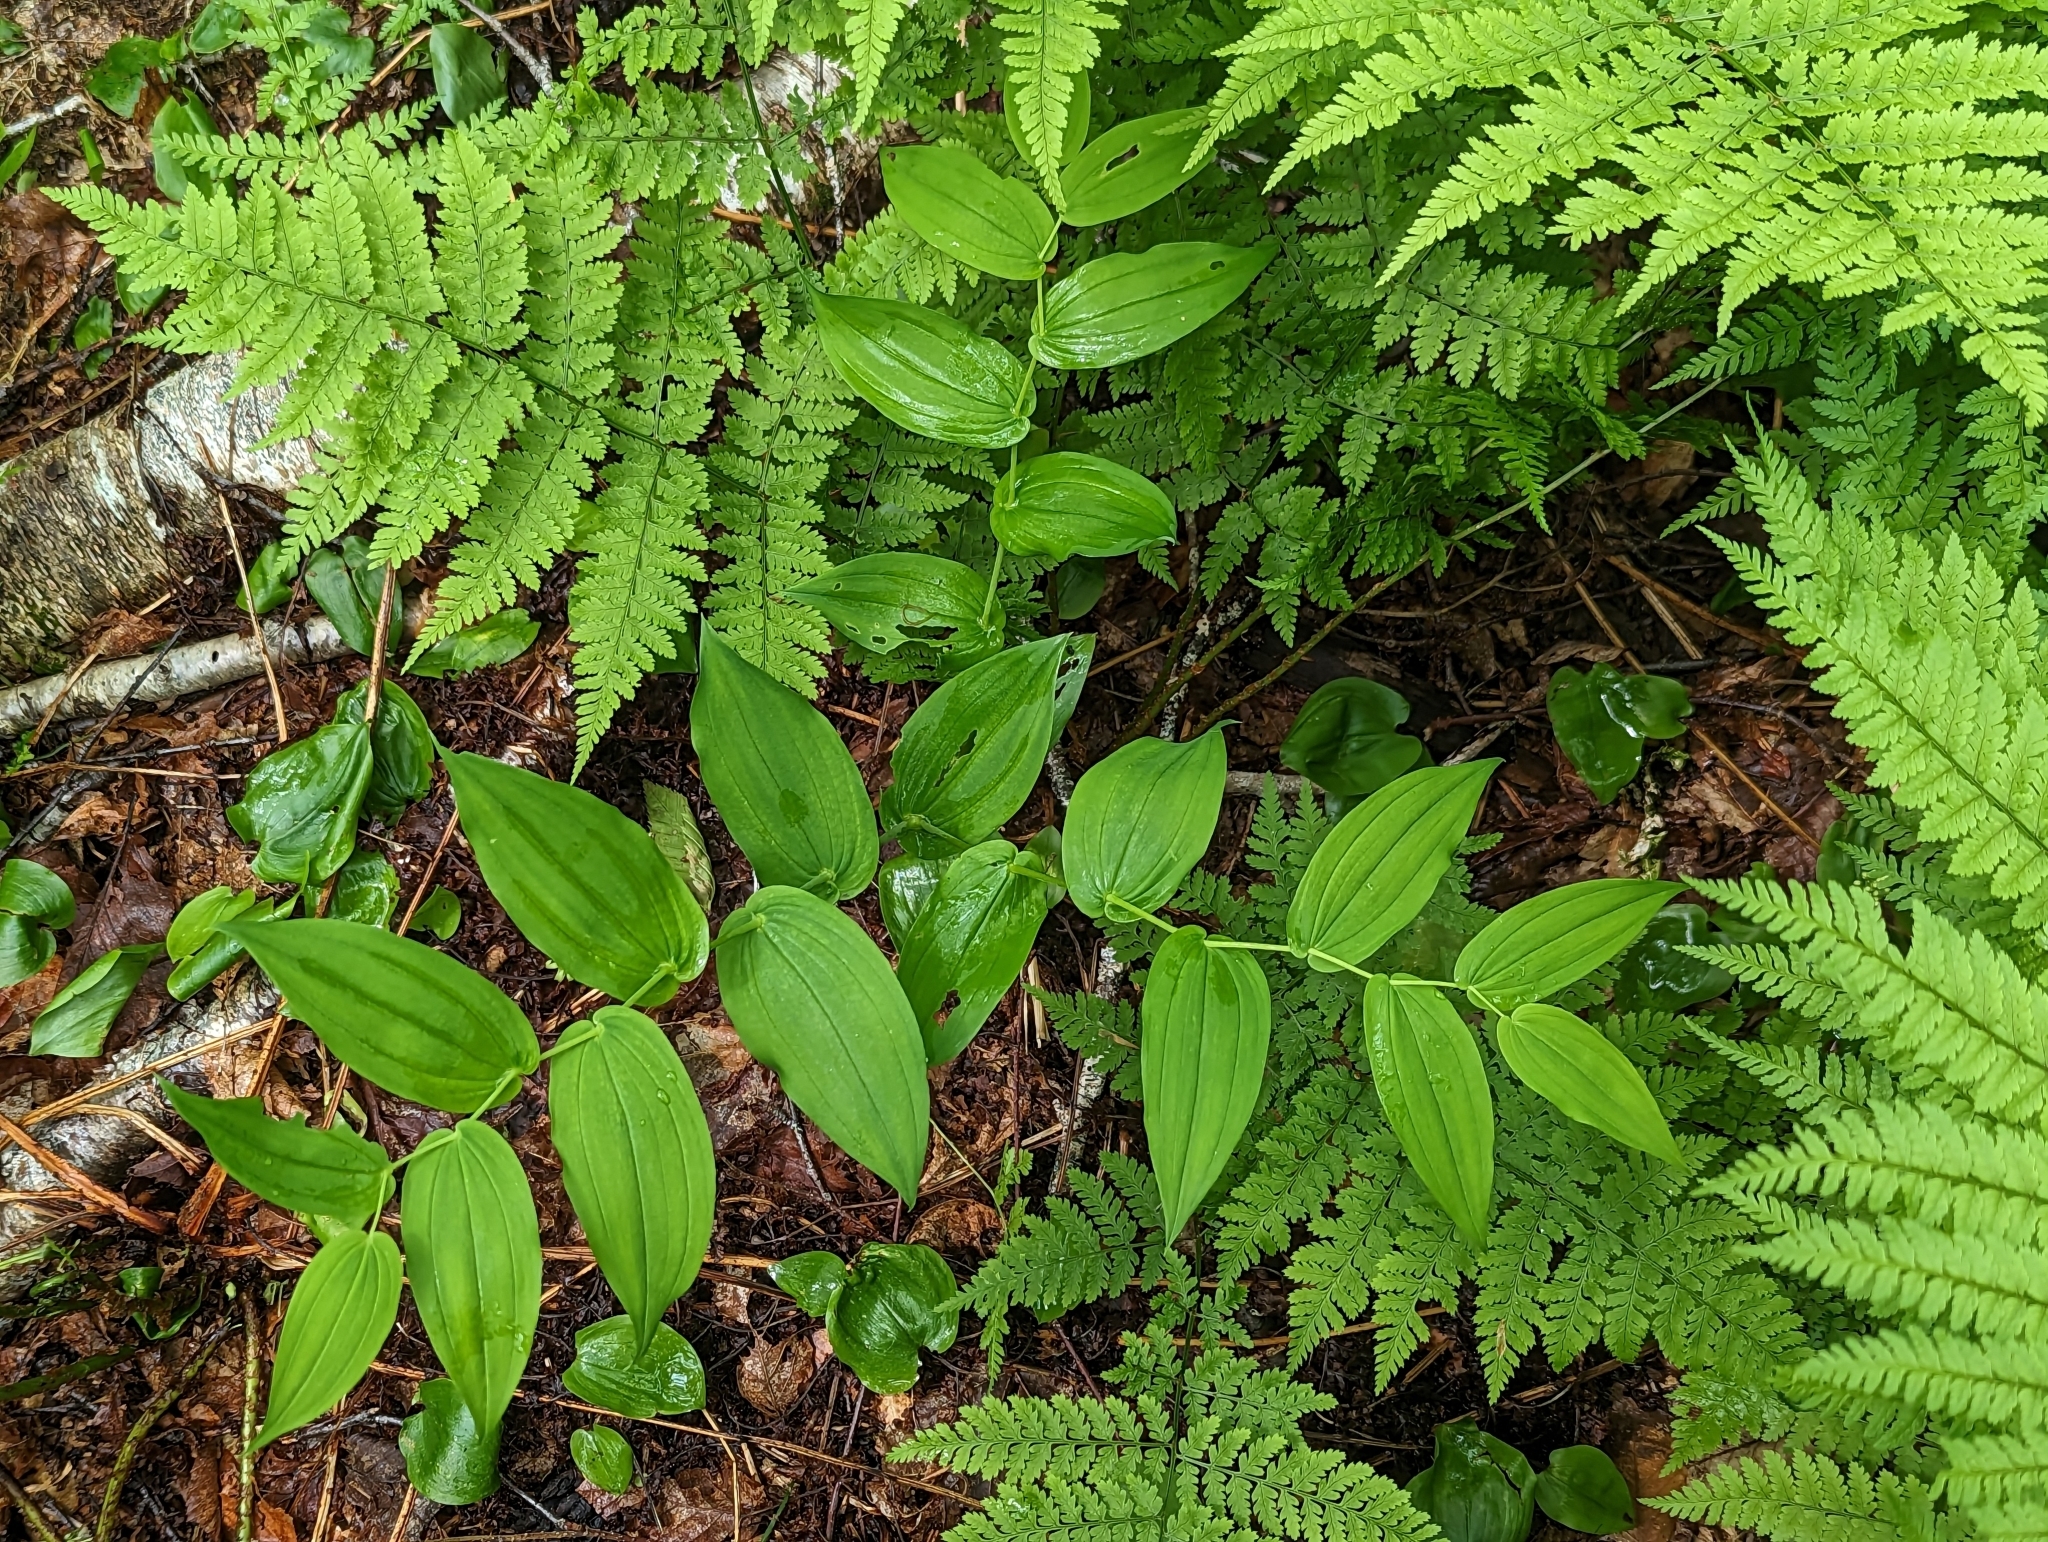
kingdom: Plantae
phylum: Tracheophyta
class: Liliopsida
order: Liliales
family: Liliaceae
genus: Streptopus
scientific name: Streptopus amplexifolius
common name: Clasp twisted stalk
